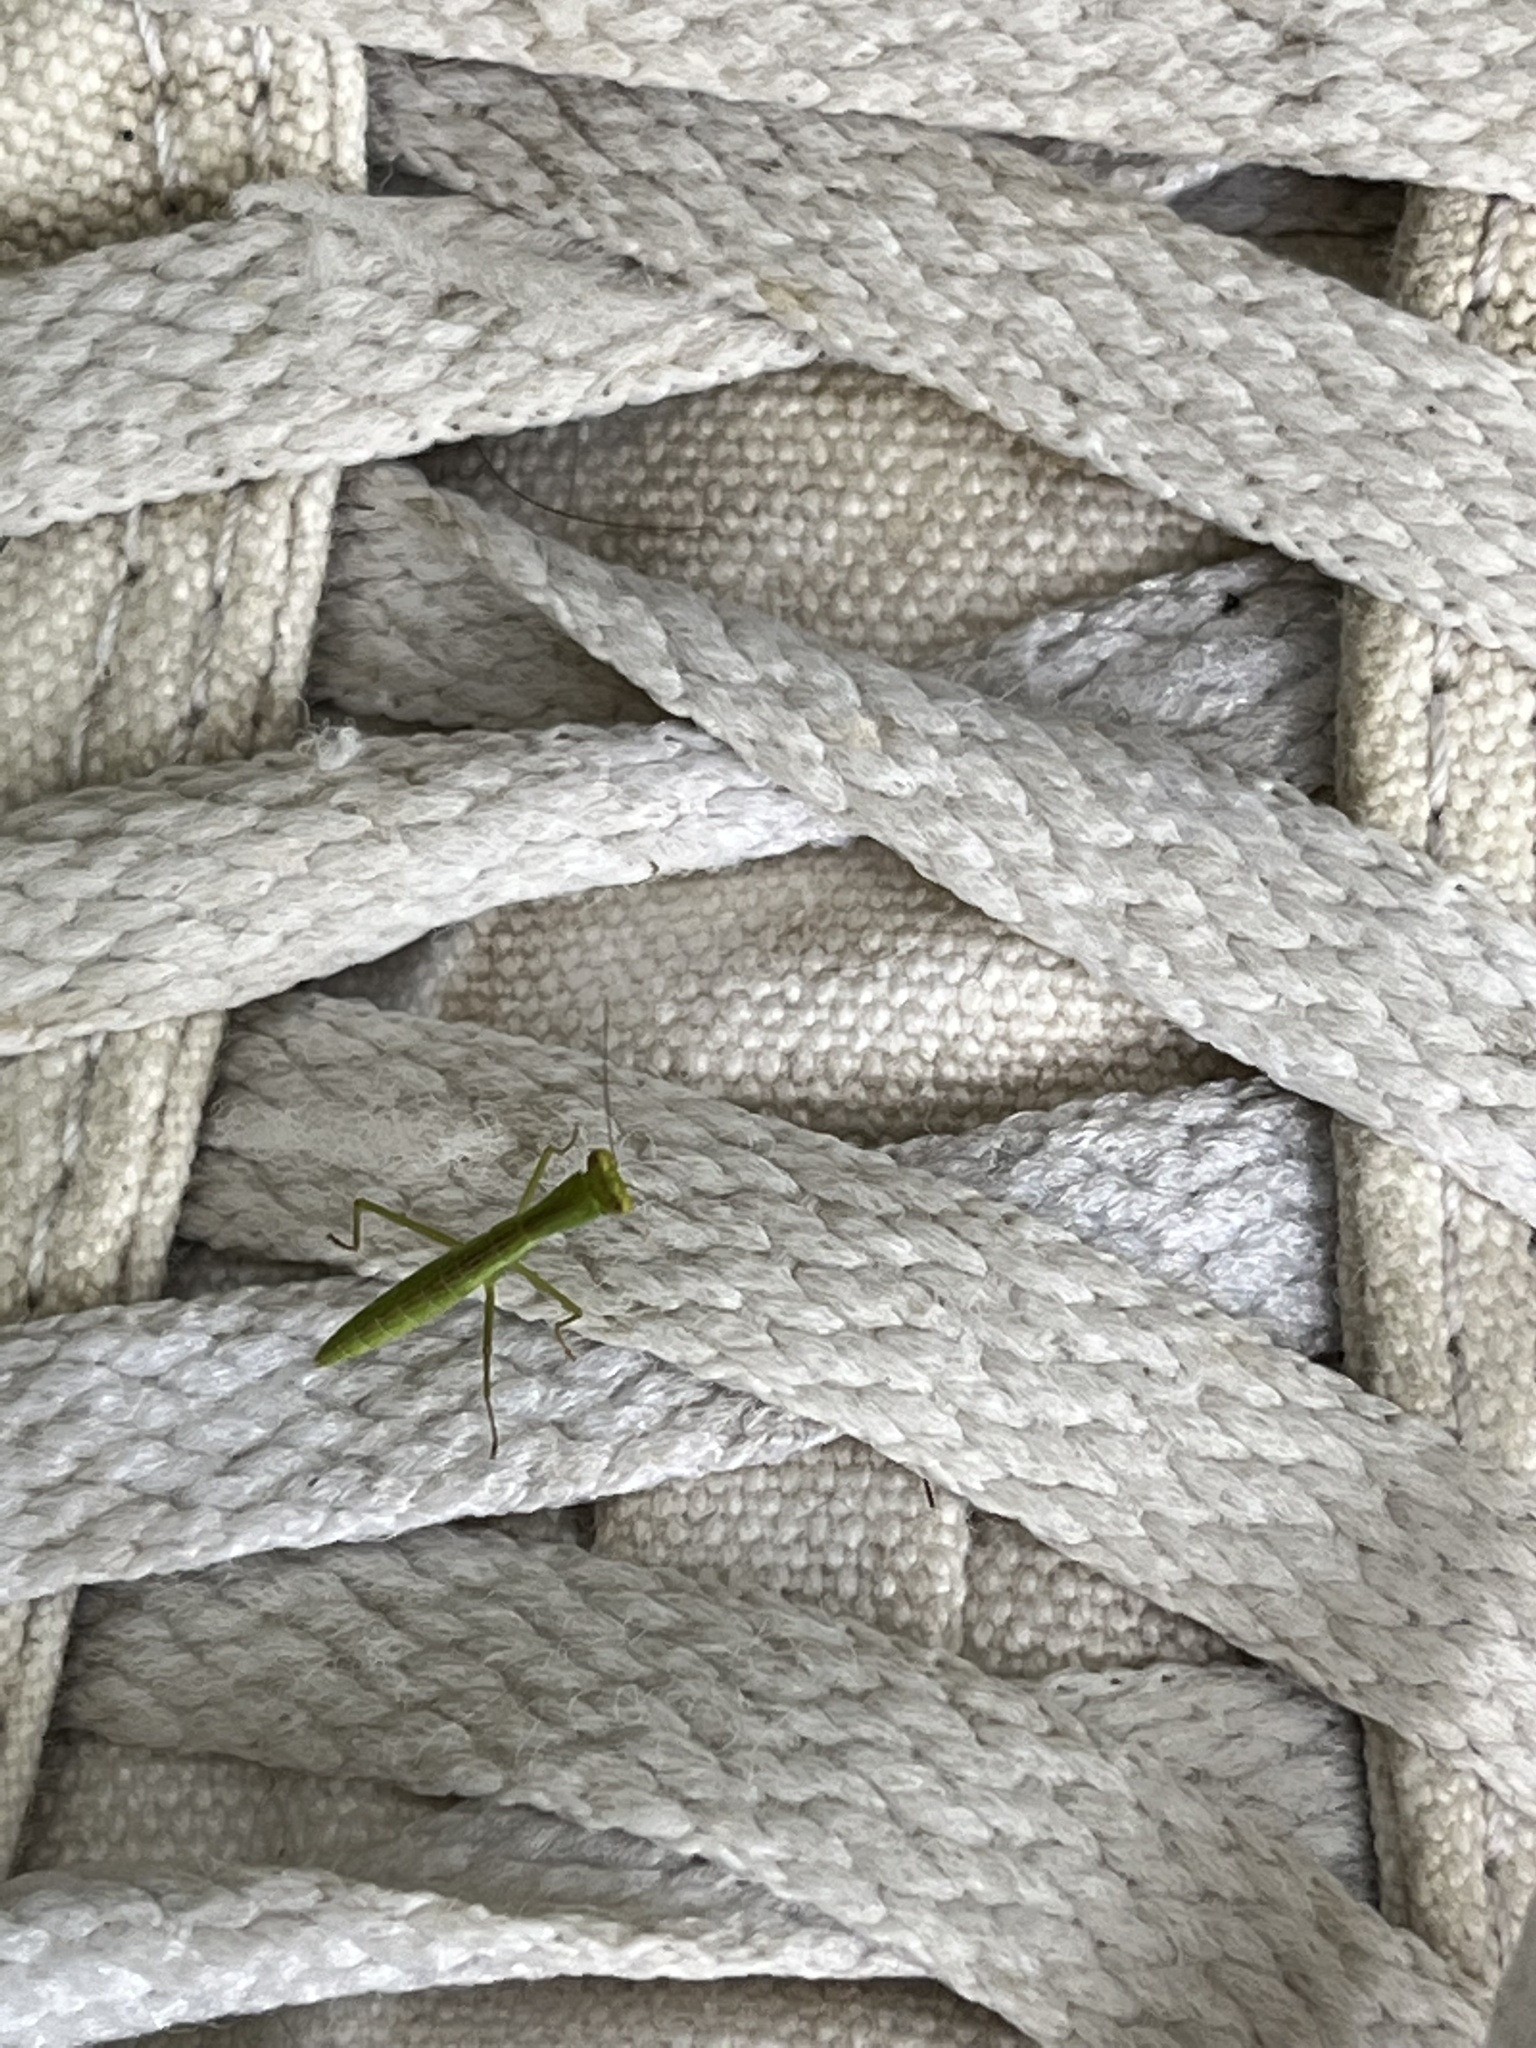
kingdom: Animalia
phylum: Arthropoda
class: Insecta
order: Mantodea
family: Mantidae
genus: Orthodera
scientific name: Orthodera ministralis
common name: Mantis
